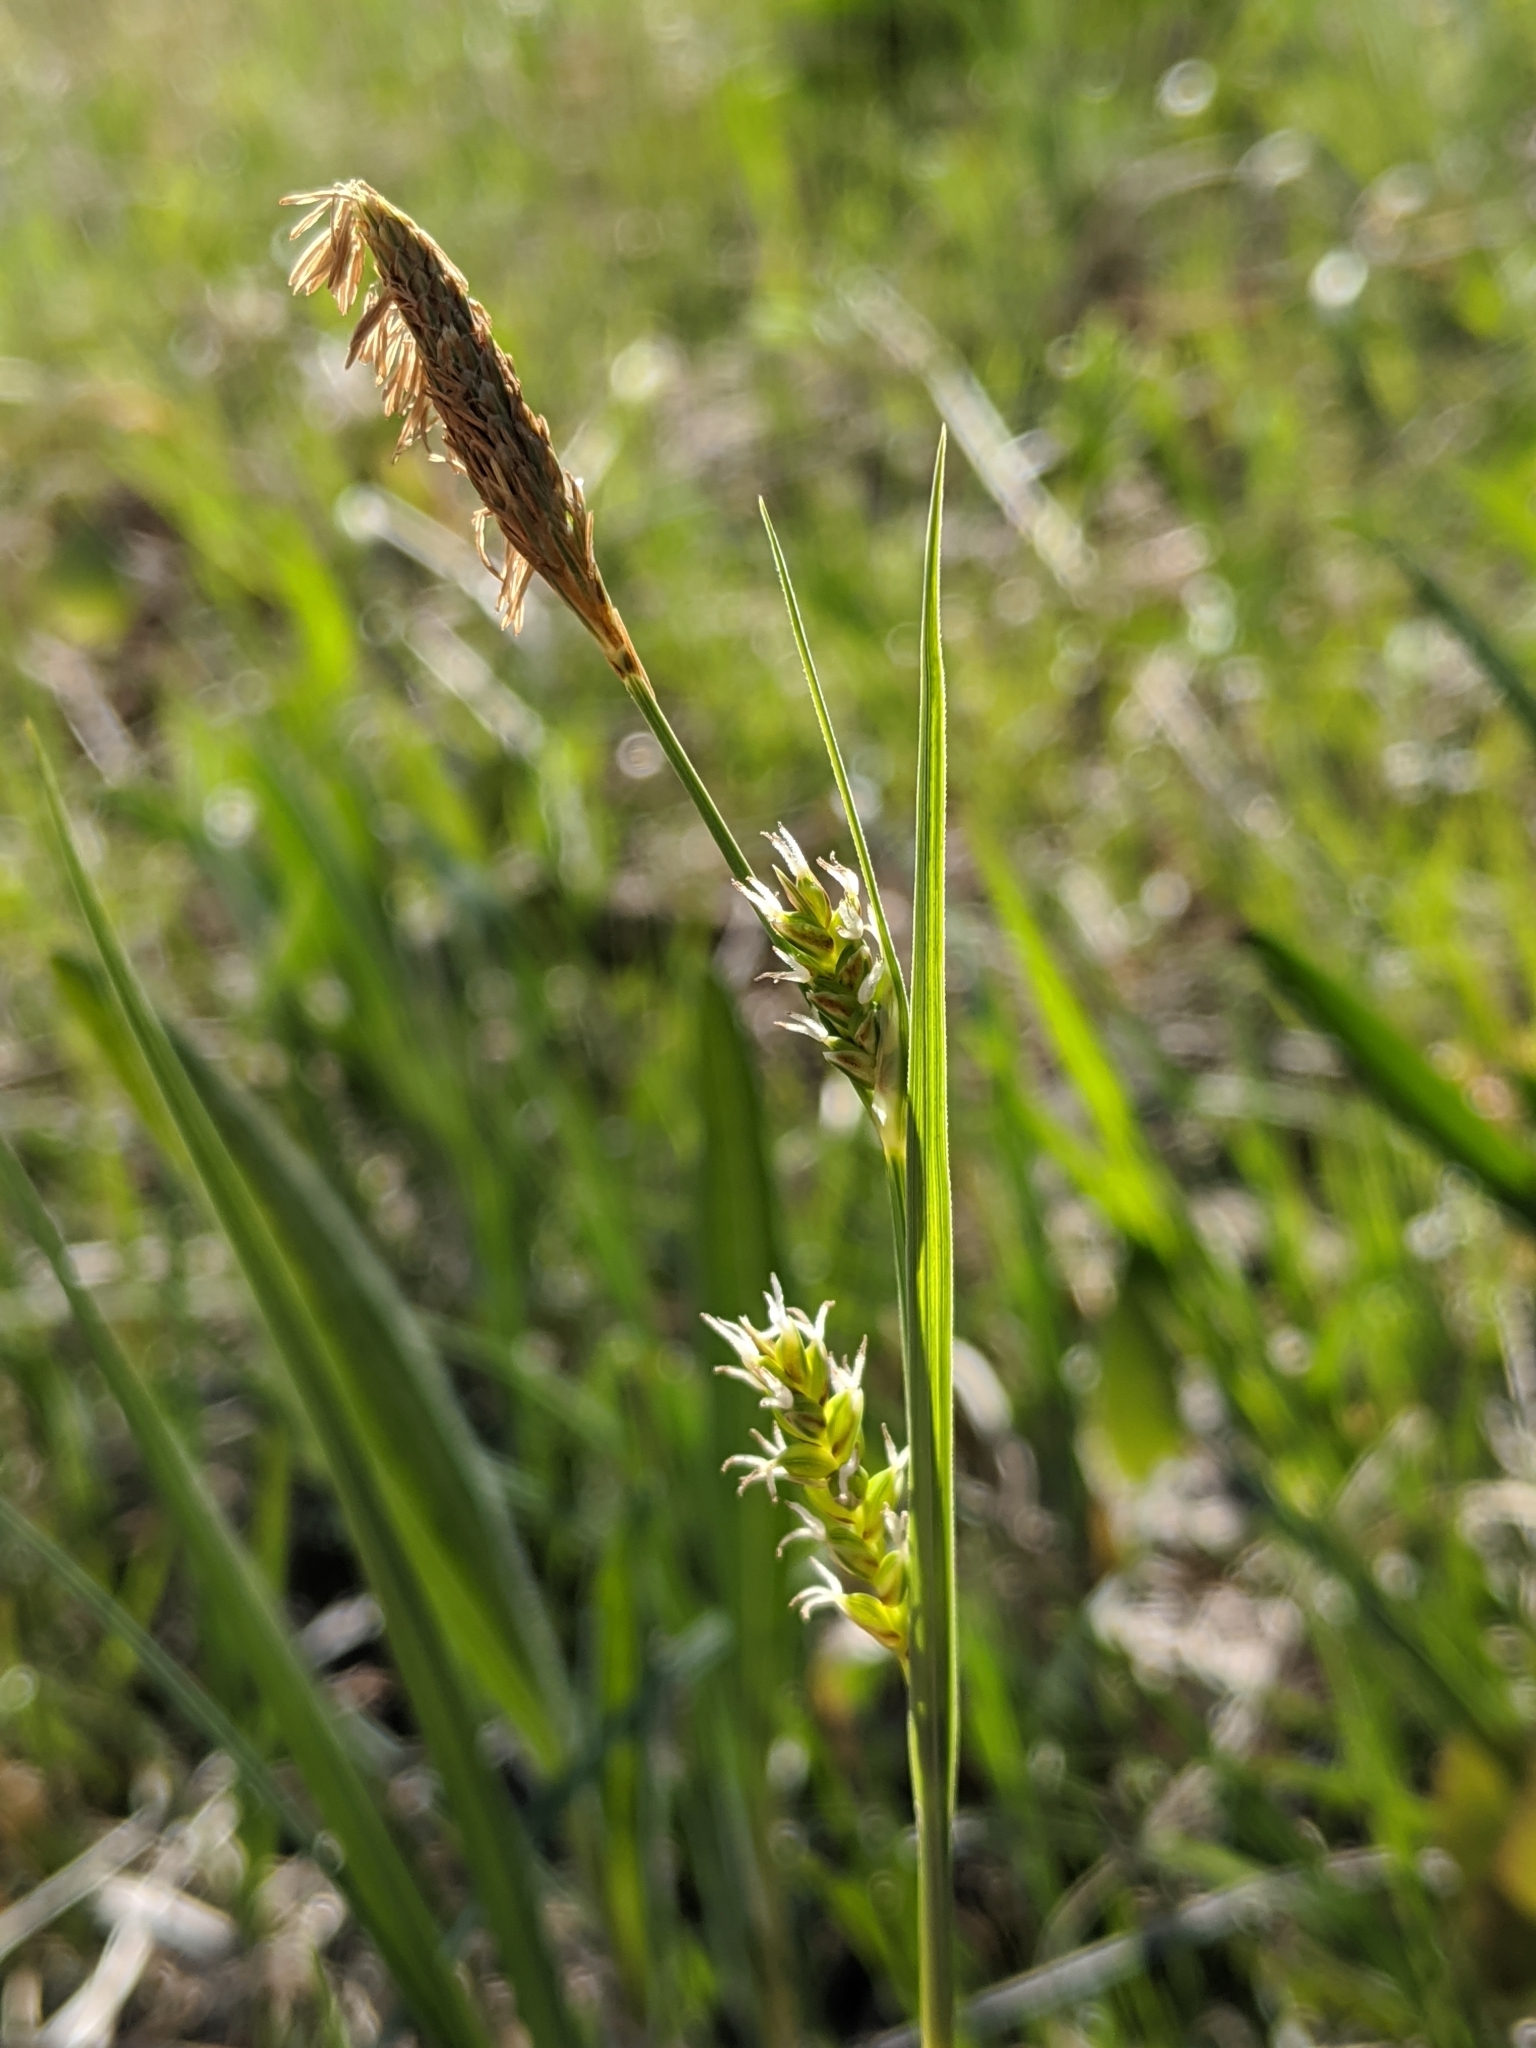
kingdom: Plantae
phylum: Tracheophyta
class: Liliopsida
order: Poales
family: Cyperaceae
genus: Carex
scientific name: Carex meadii
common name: Mead's sedge
